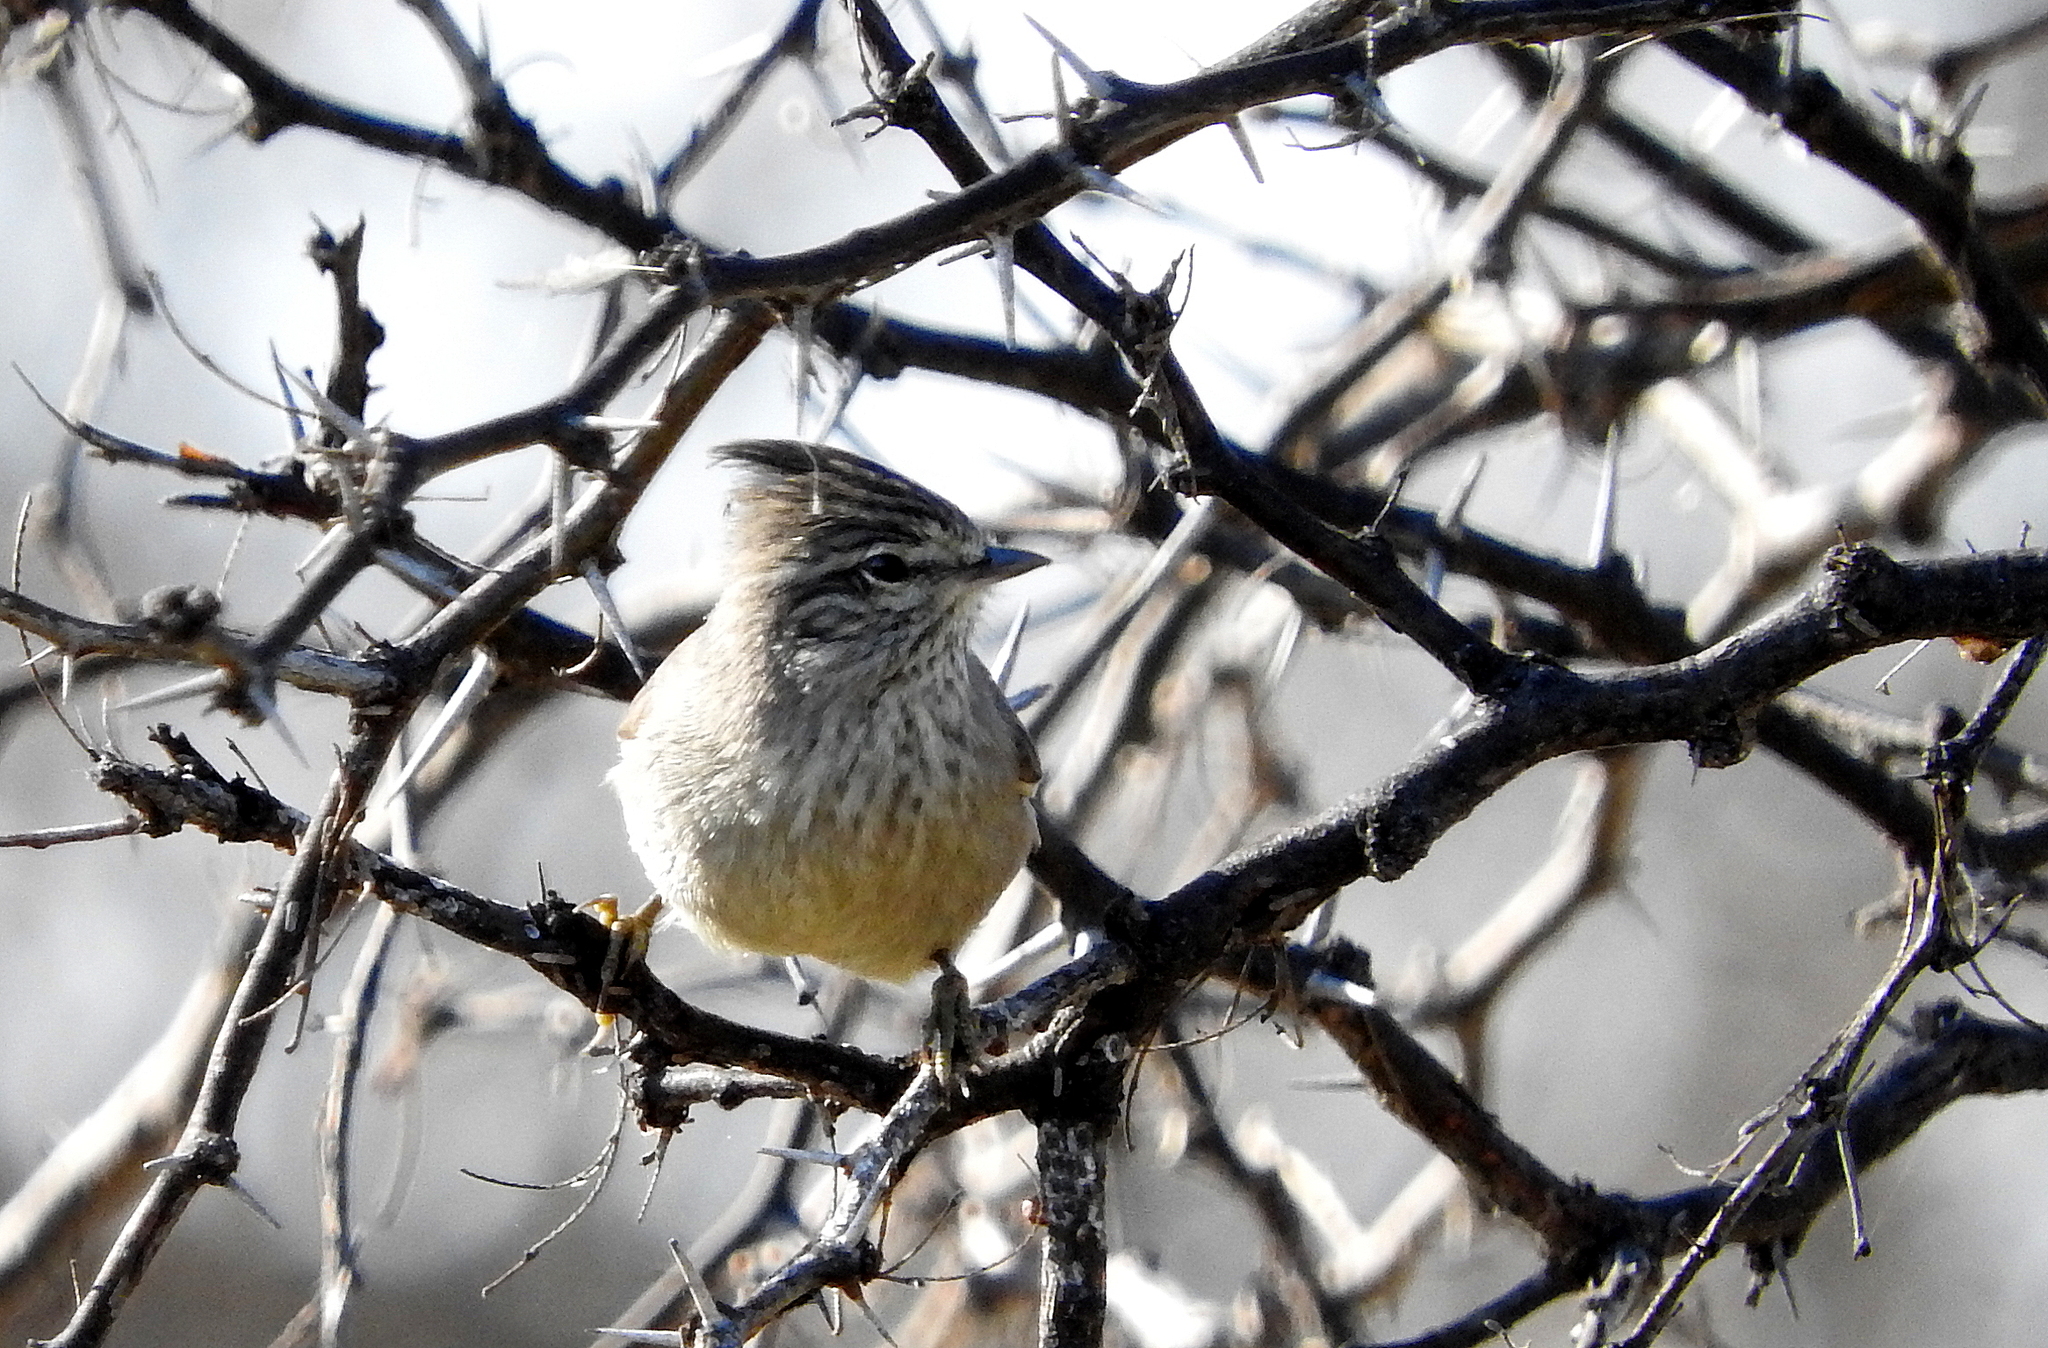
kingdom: Animalia
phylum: Chordata
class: Aves
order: Passeriformes
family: Furnariidae
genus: Leptasthenura
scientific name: Leptasthenura platensis
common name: Tufted tit-spinetail
